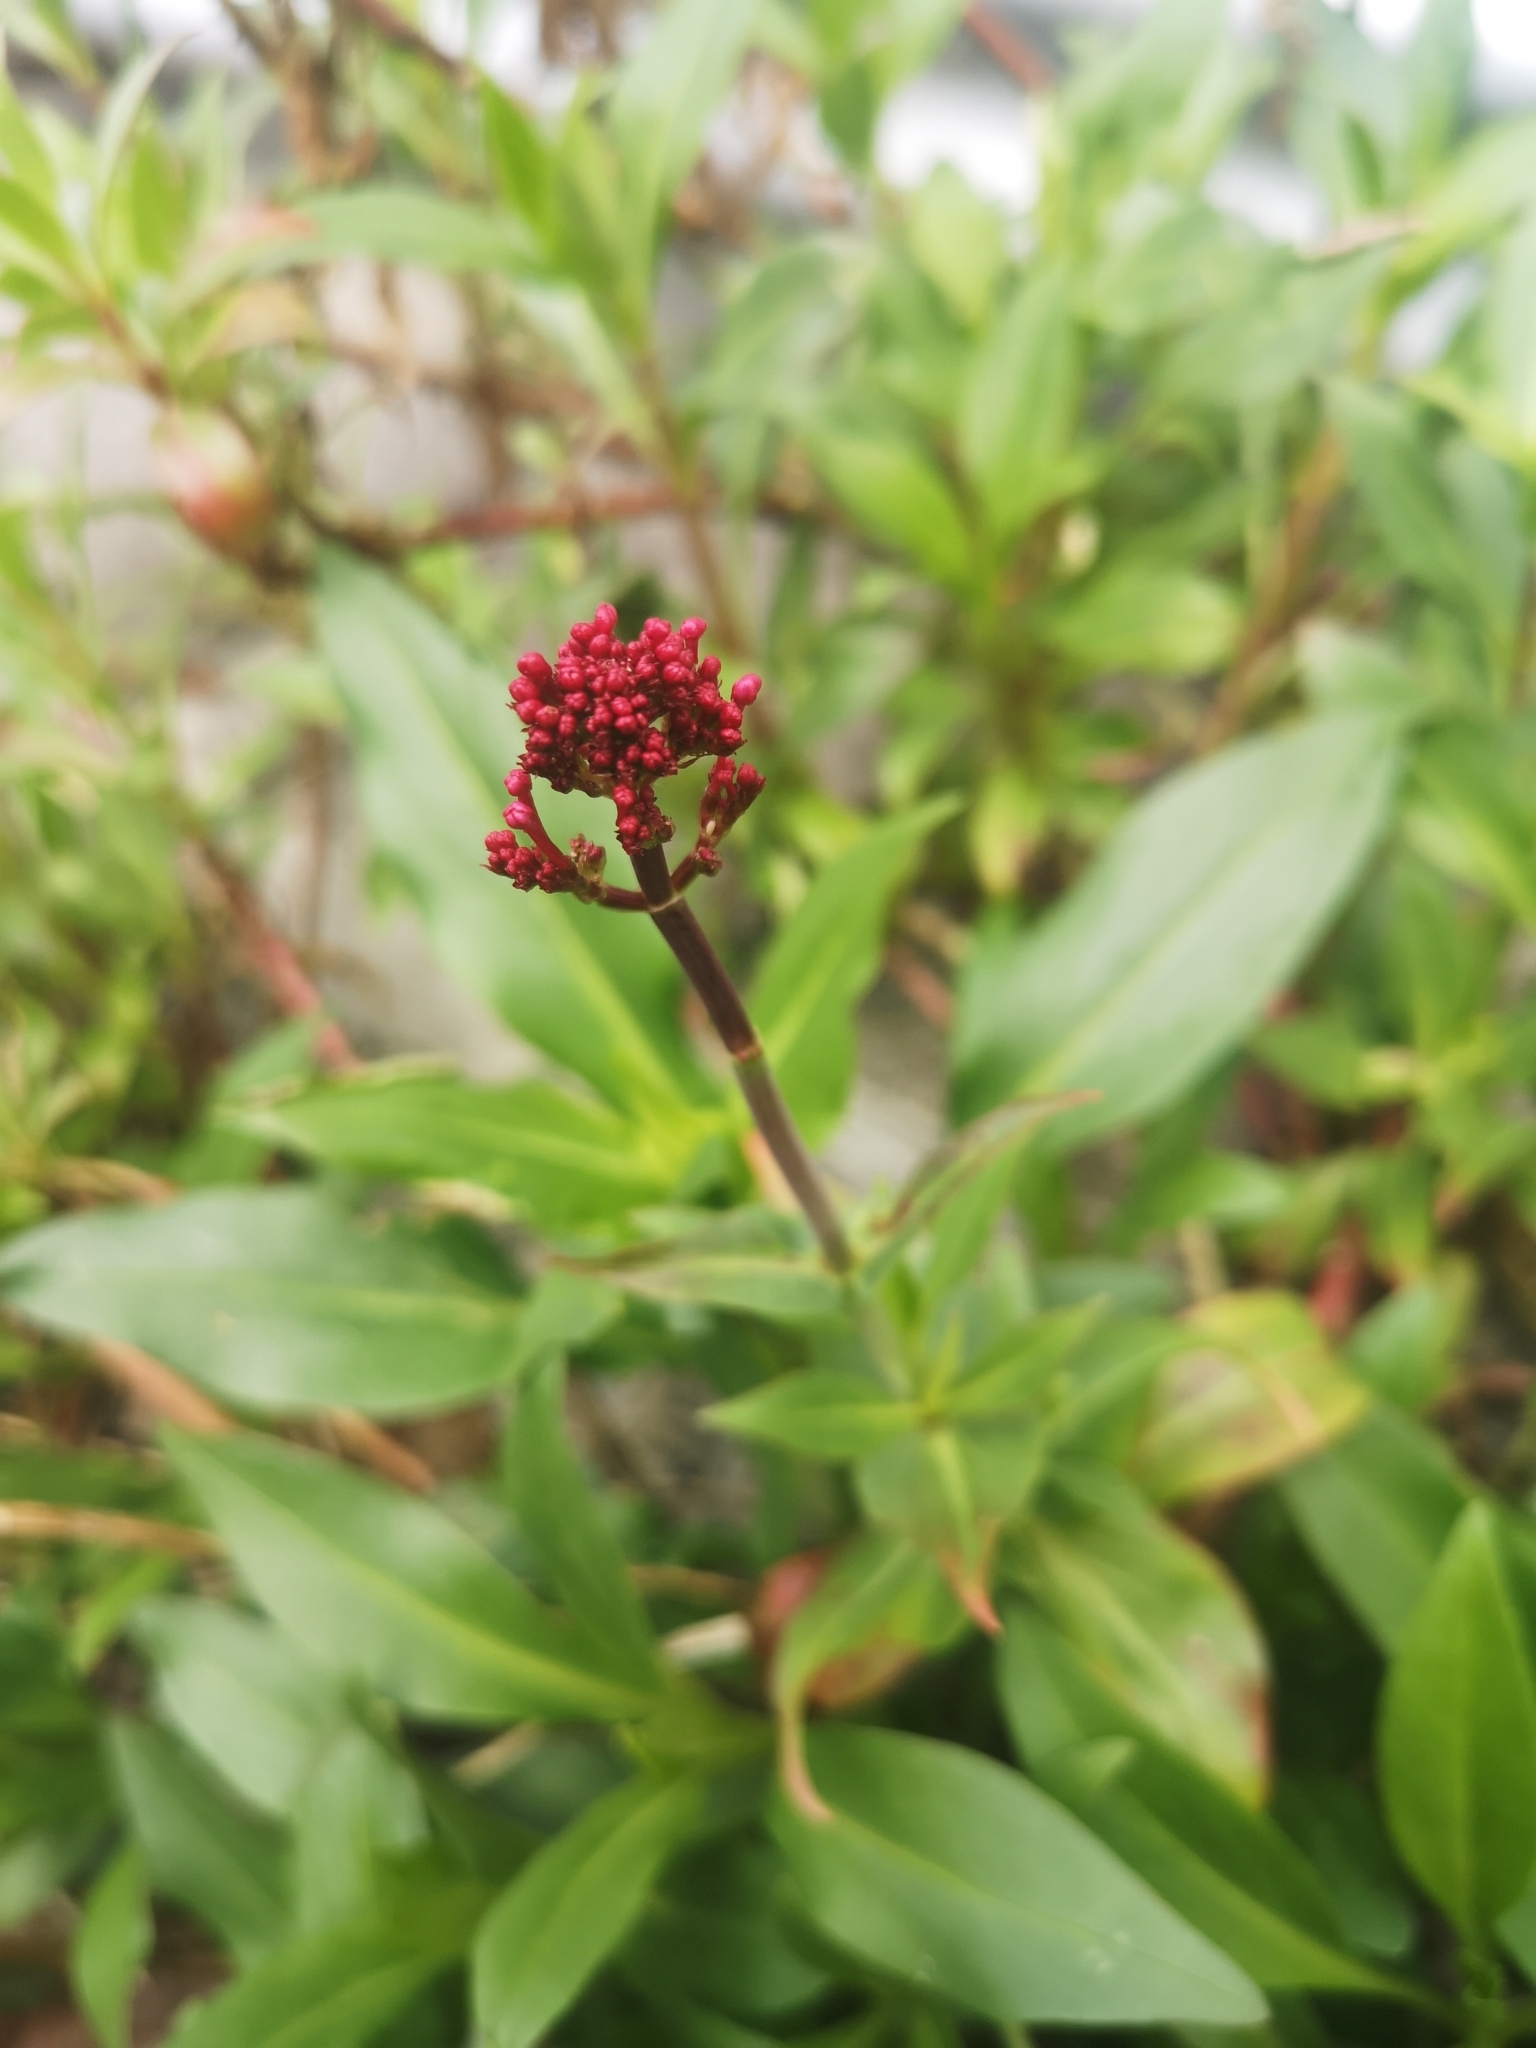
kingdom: Plantae
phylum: Tracheophyta
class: Magnoliopsida
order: Dipsacales
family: Caprifoliaceae
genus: Centranthus
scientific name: Centranthus ruber
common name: Red valerian
